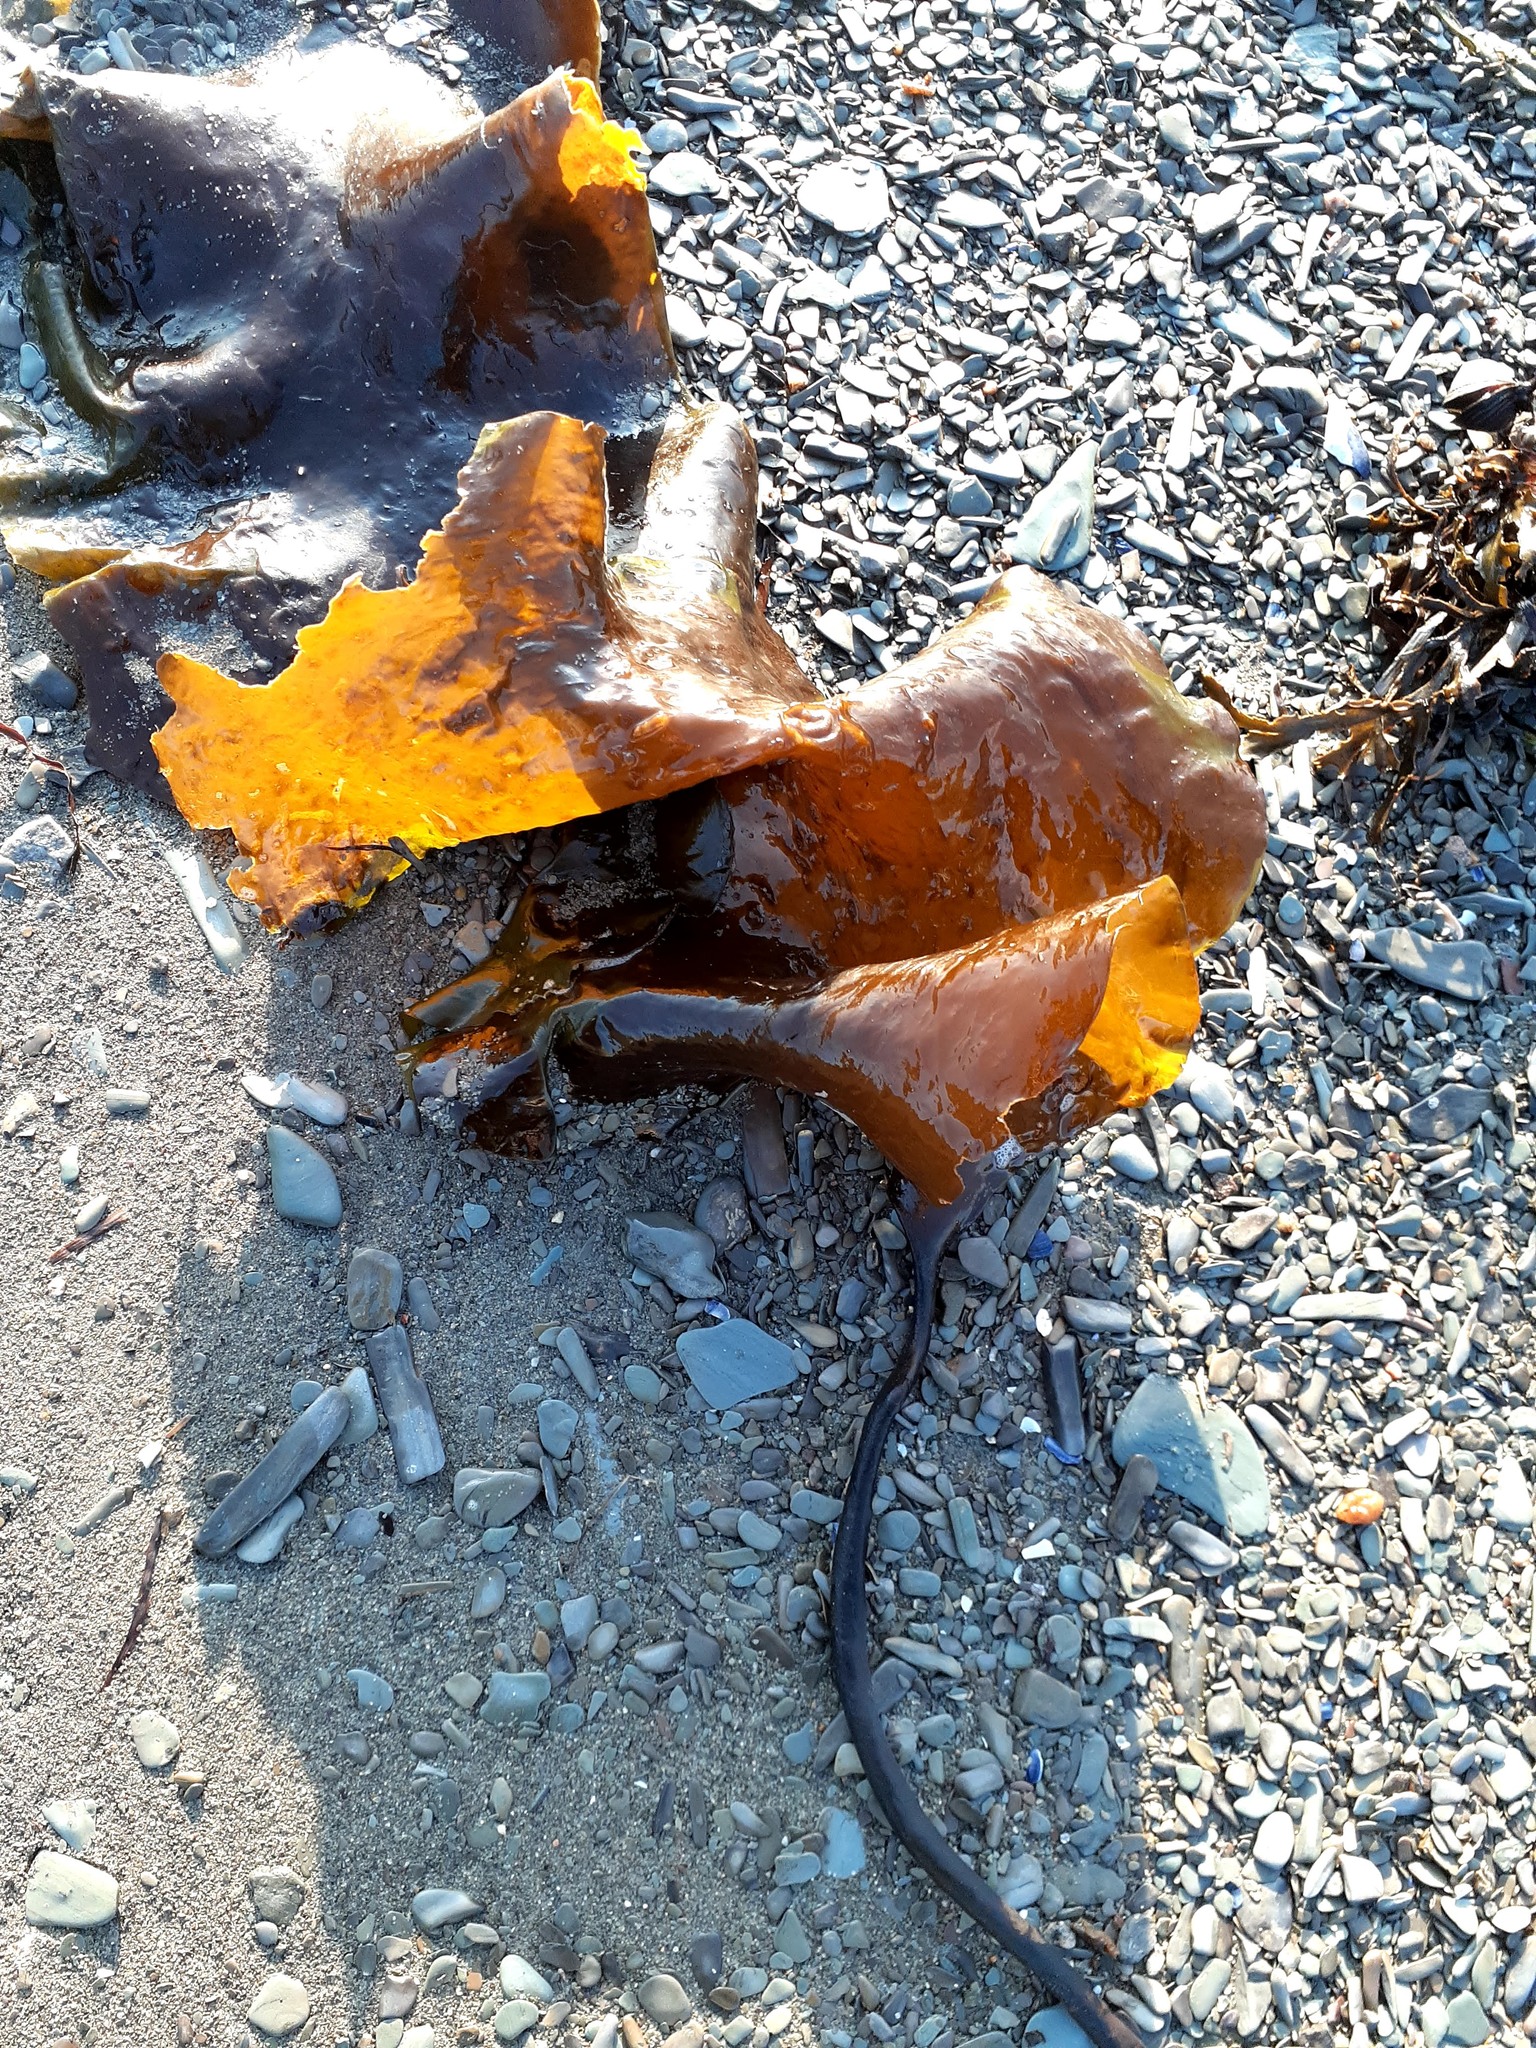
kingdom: Chromista
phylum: Ochrophyta
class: Phaeophyceae
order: Laminariales
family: Laminariaceae
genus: Saccharina
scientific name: Saccharina latissima
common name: Poor man's weather glass
